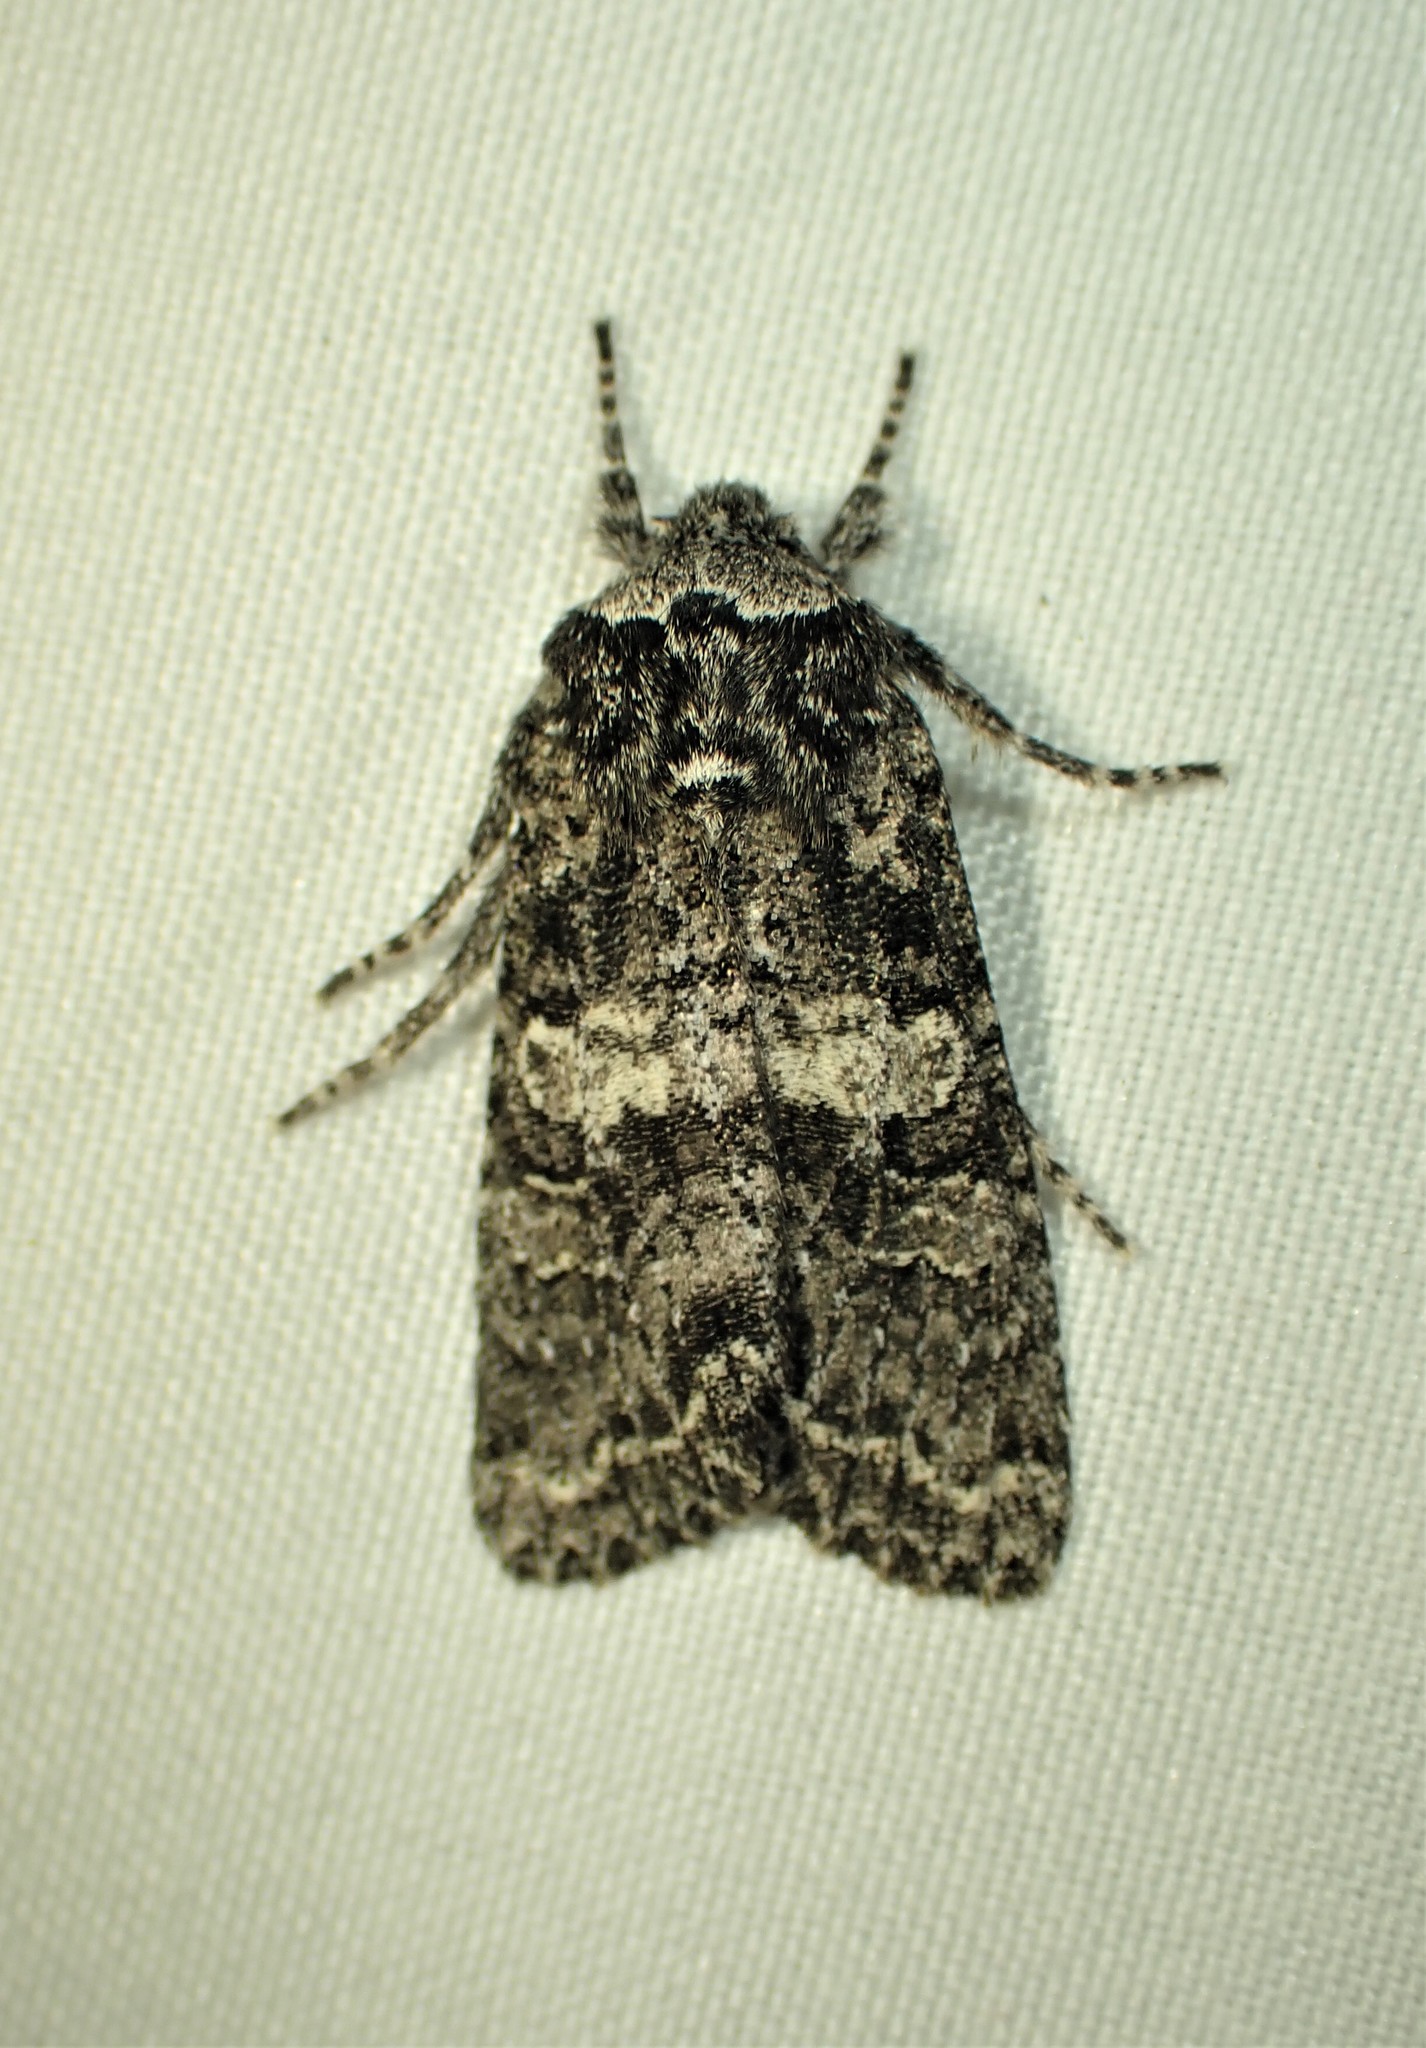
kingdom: Animalia
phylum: Arthropoda
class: Insecta
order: Lepidoptera
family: Noctuidae
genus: Egira
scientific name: Egira dolosa
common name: Lined black aspen cat.
